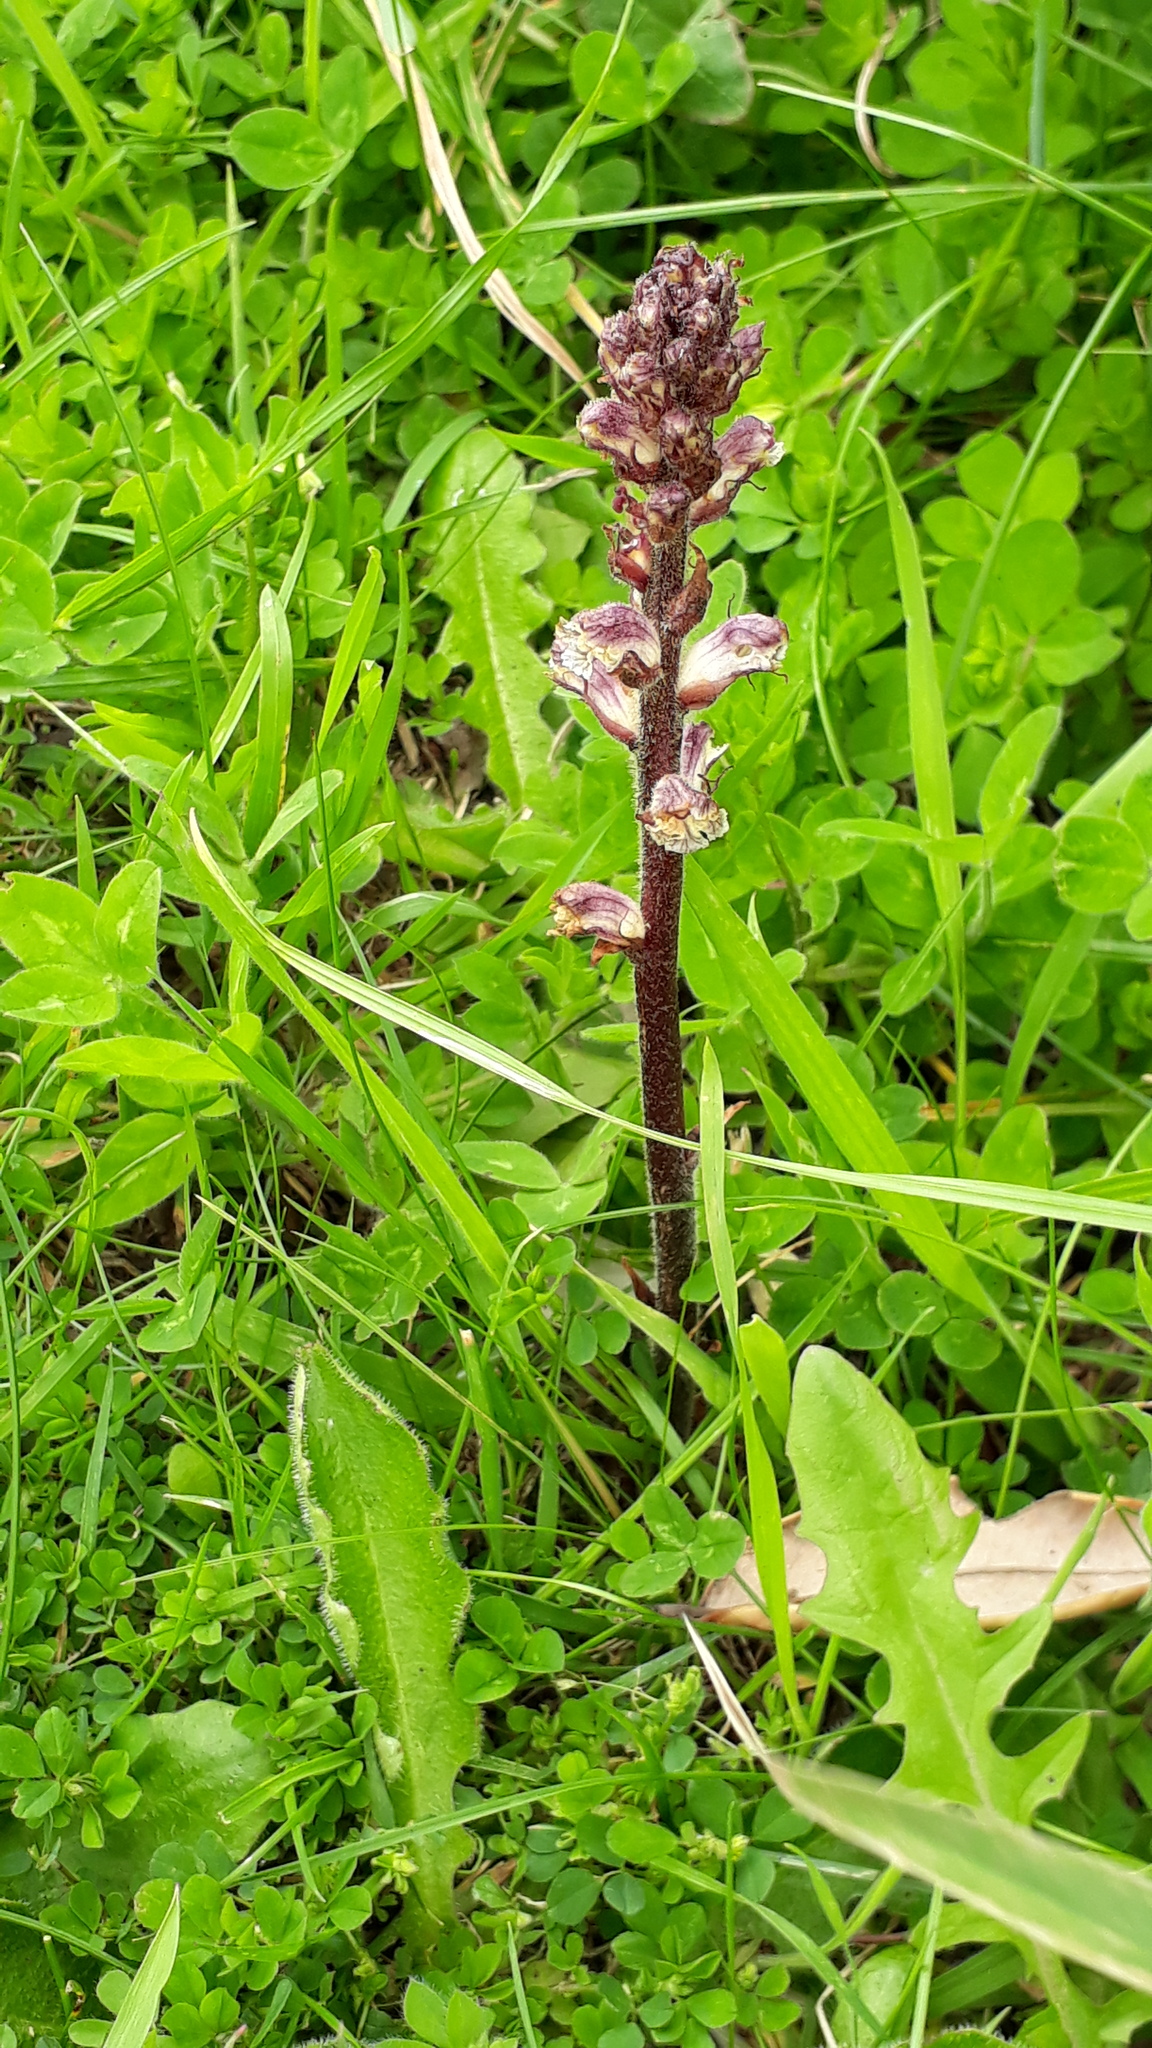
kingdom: Plantae
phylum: Tracheophyta
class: Magnoliopsida
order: Lamiales
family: Orobanchaceae
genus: Orobanche
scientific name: Orobanche minor
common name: Common broomrape
